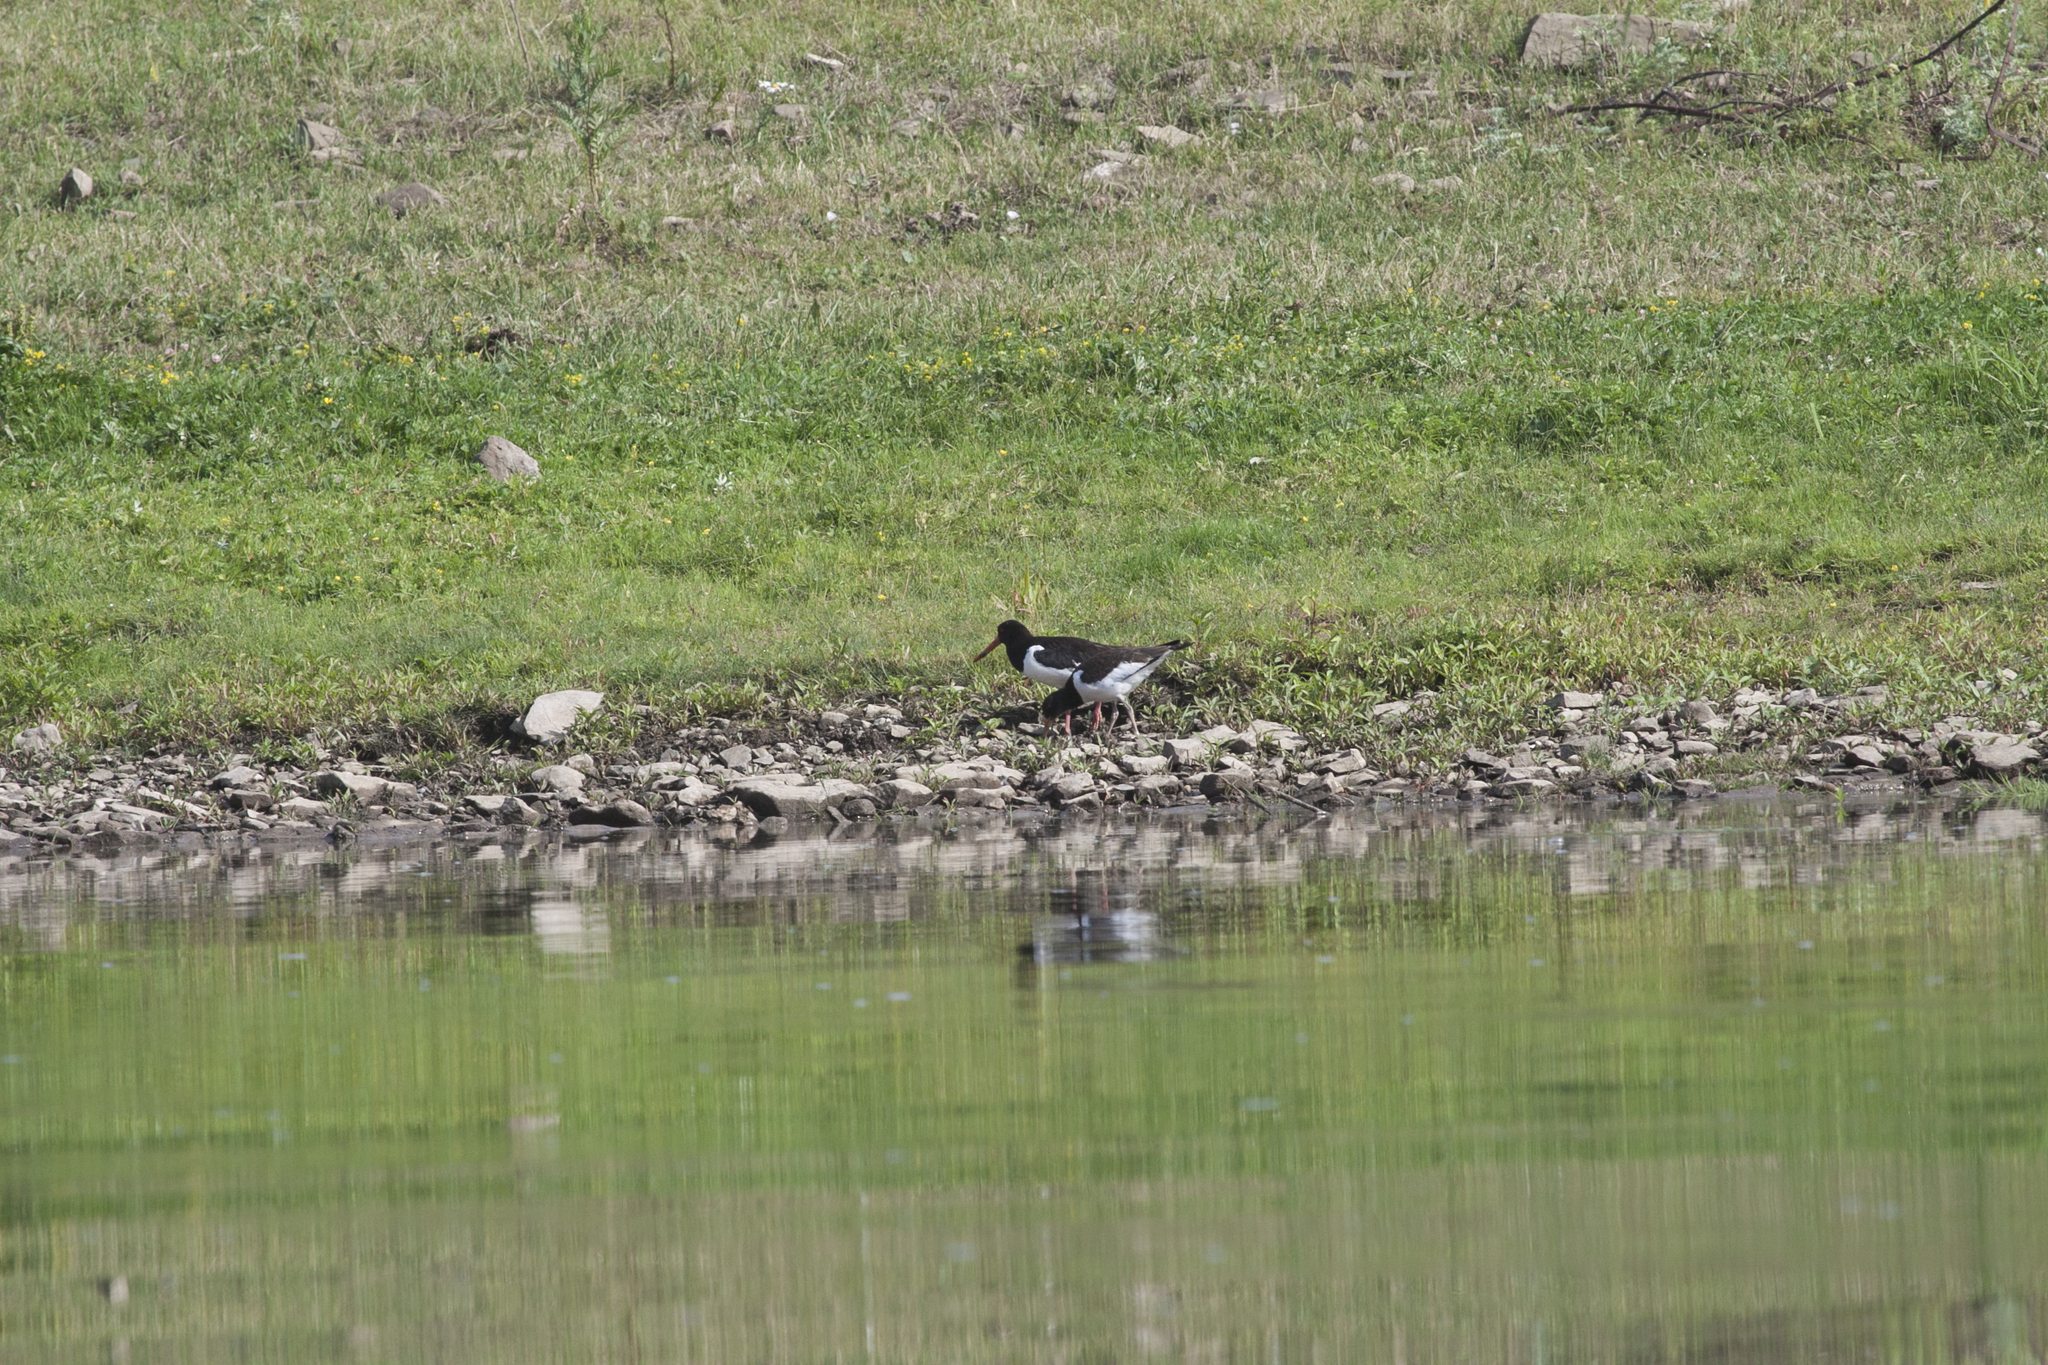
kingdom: Animalia
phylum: Chordata
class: Aves
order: Charadriiformes
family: Haematopodidae
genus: Haematopus
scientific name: Haematopus ostralegus
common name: Eurasian oystercatcher
